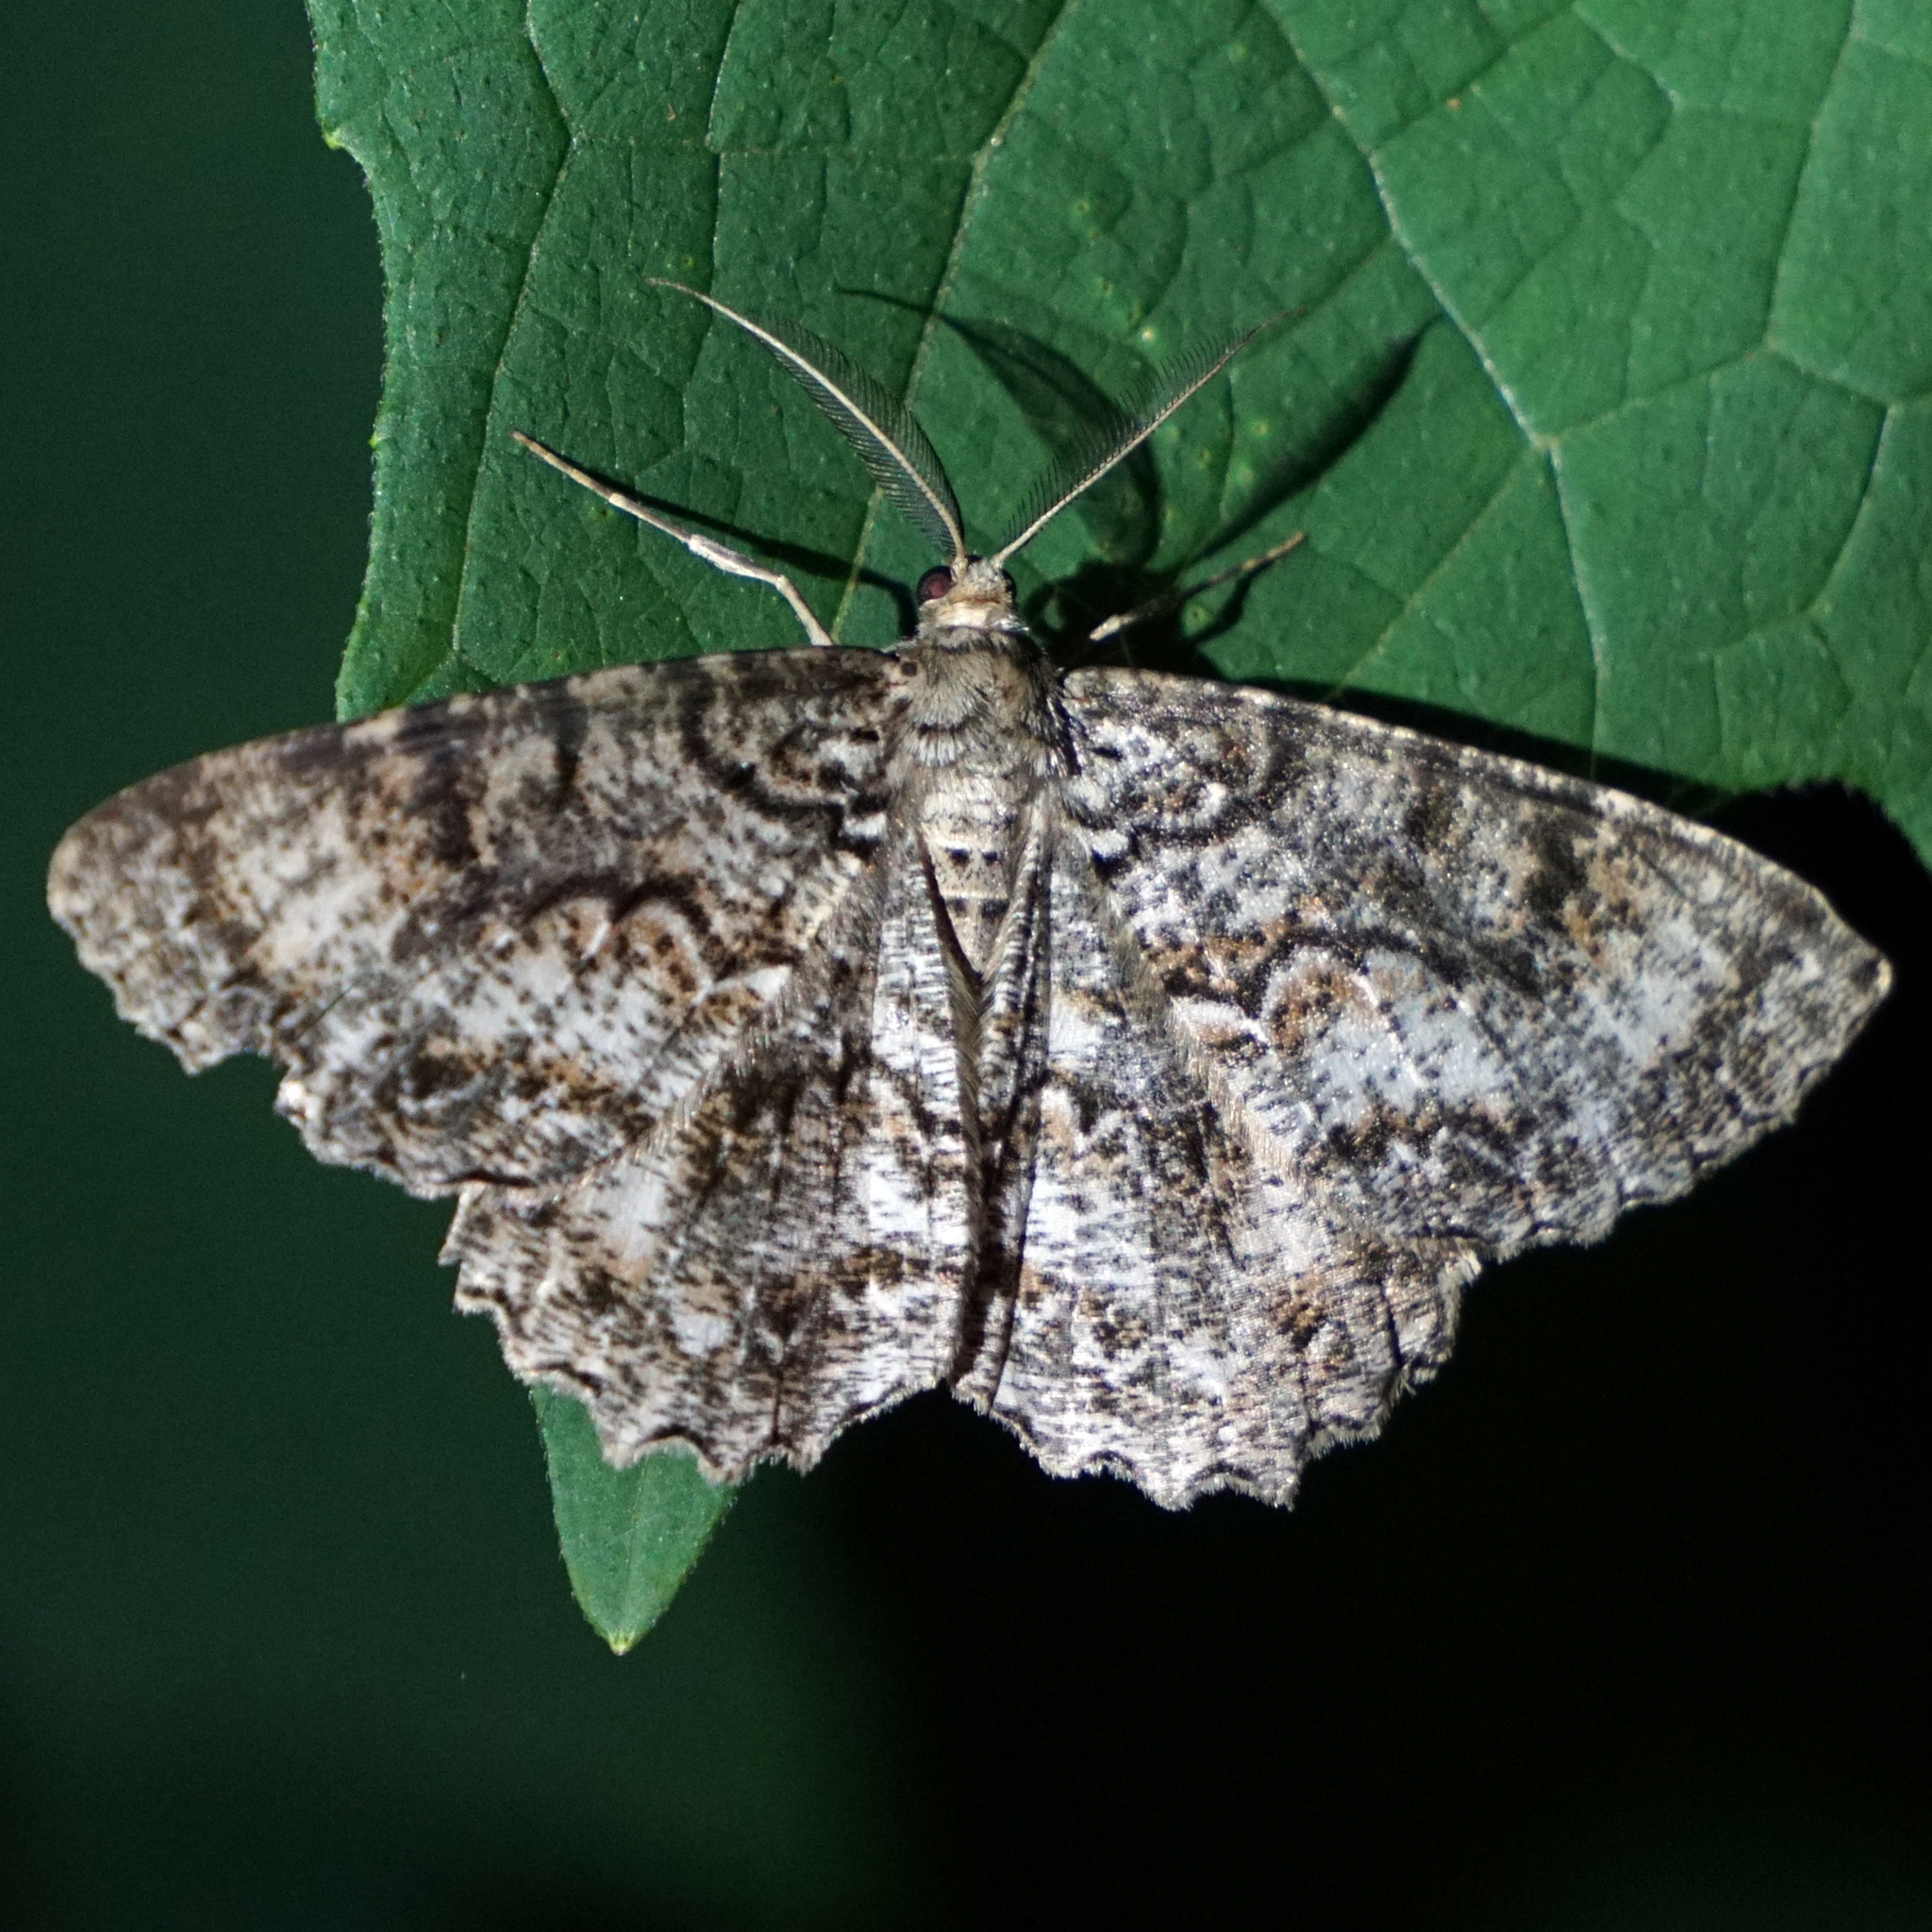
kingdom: Animalia
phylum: Arthropoda
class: Insecta
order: Lepidoptera
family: Geometridae
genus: Epimecis
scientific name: Epimecis hortaria
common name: Tulip-tree beauty
